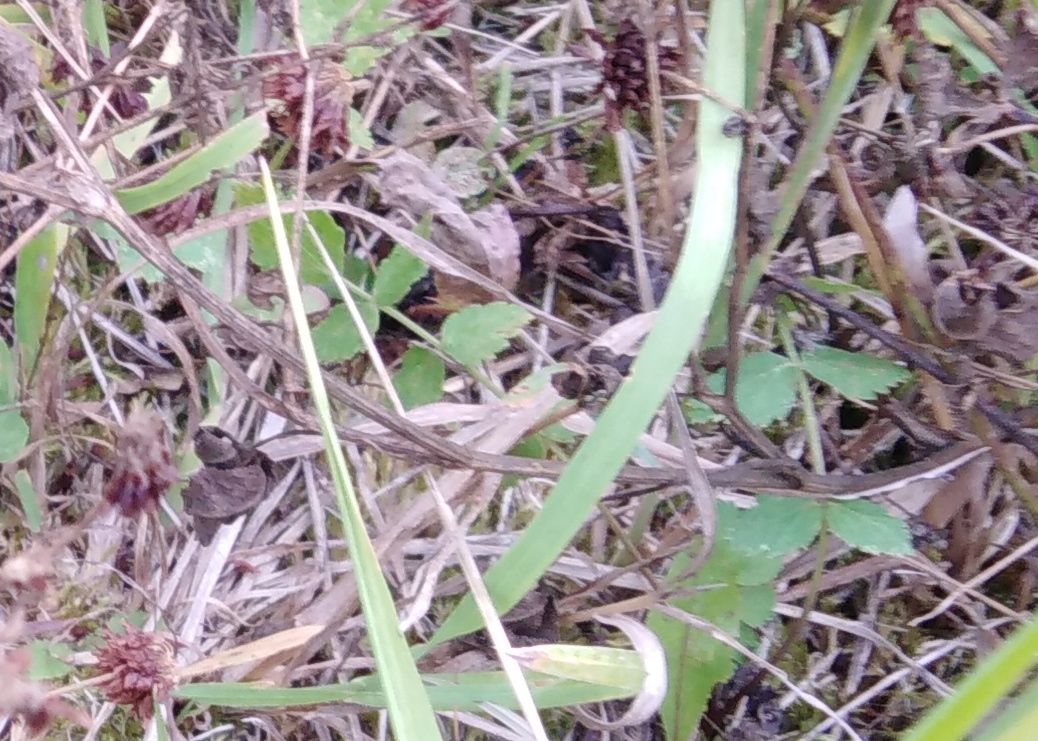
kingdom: Plantae
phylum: Tracheophyta
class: Magnoliopsida
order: Apiales
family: Apiaceae
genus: Pimpinella
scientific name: Pimpinella saxifraga
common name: Burnet-saxifrage
